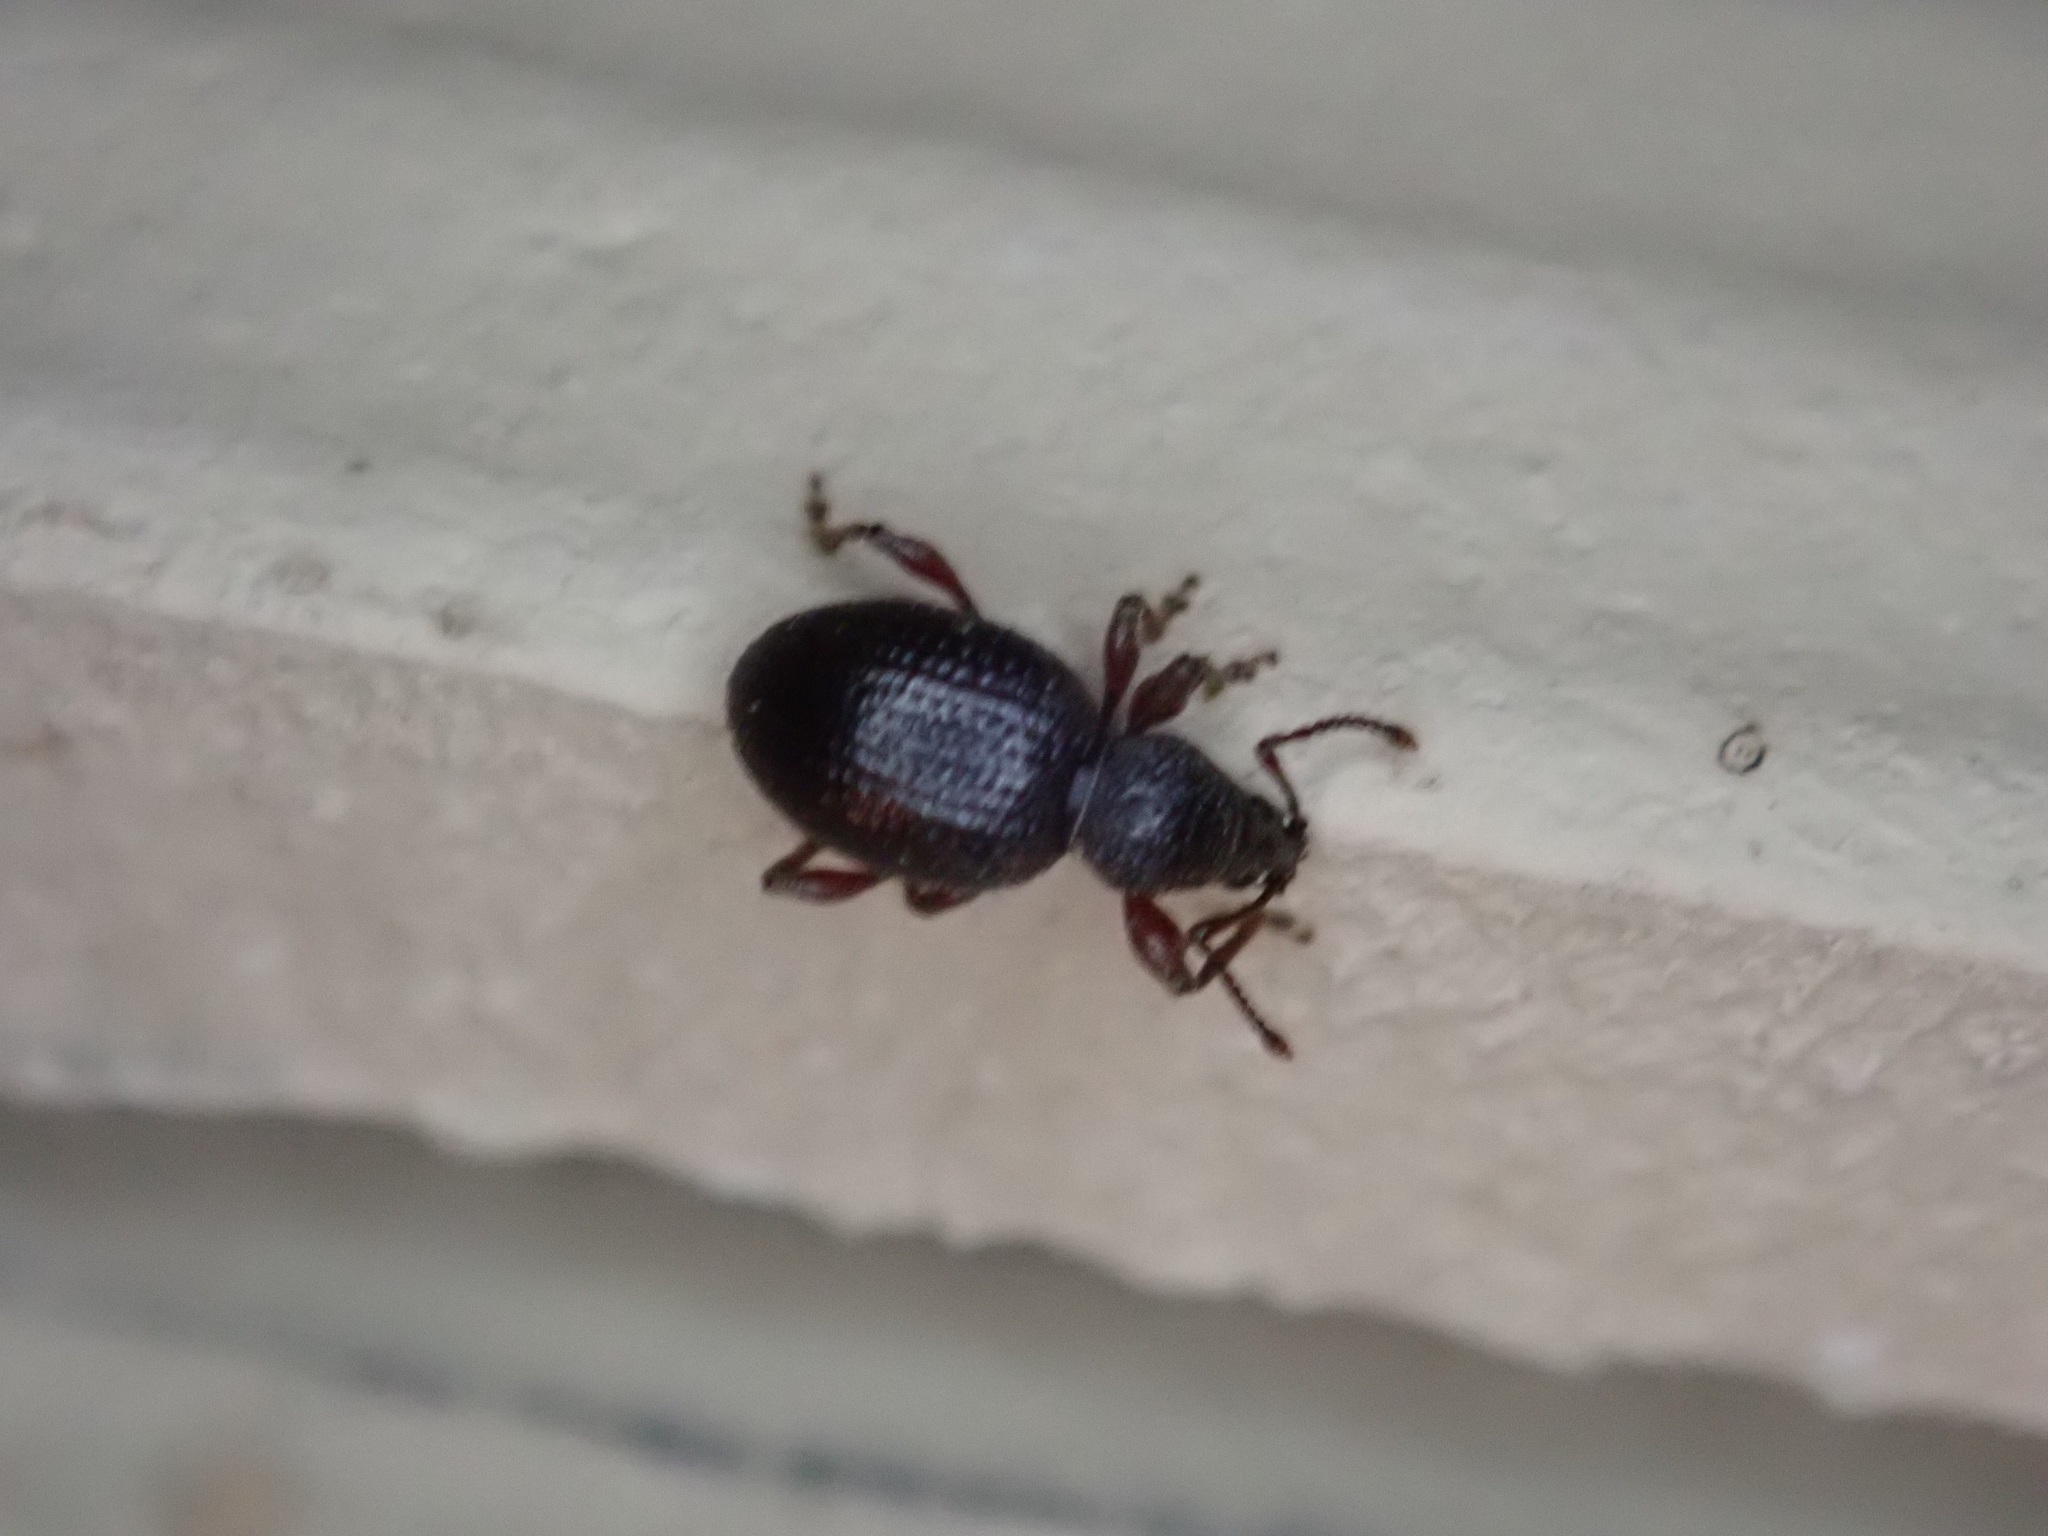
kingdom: Animalia
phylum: Arthropoda
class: Insecta
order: Coleoptera
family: Curculionidae
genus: Otiorhynchus
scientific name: Otiorhynchus ovatus
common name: Strawberry root weevil
